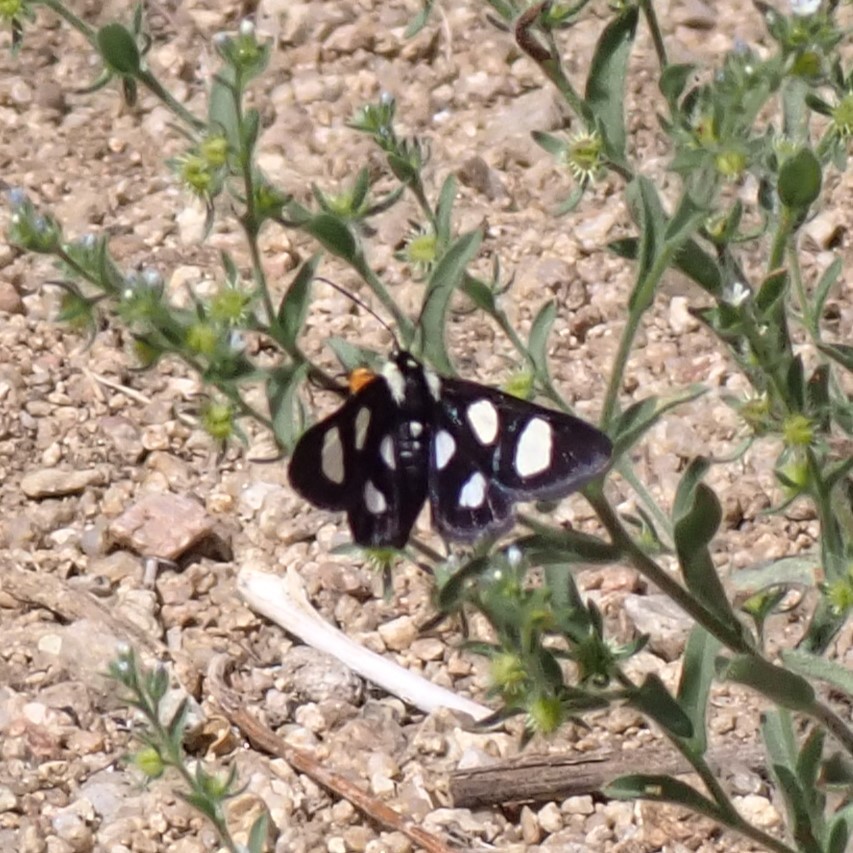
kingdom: Animalia
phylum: Arthropoda
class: Insecta
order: Lepidoptera
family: Noctuidae
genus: Alypia
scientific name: Alypia octomaculata
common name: Eight-spotted forester
